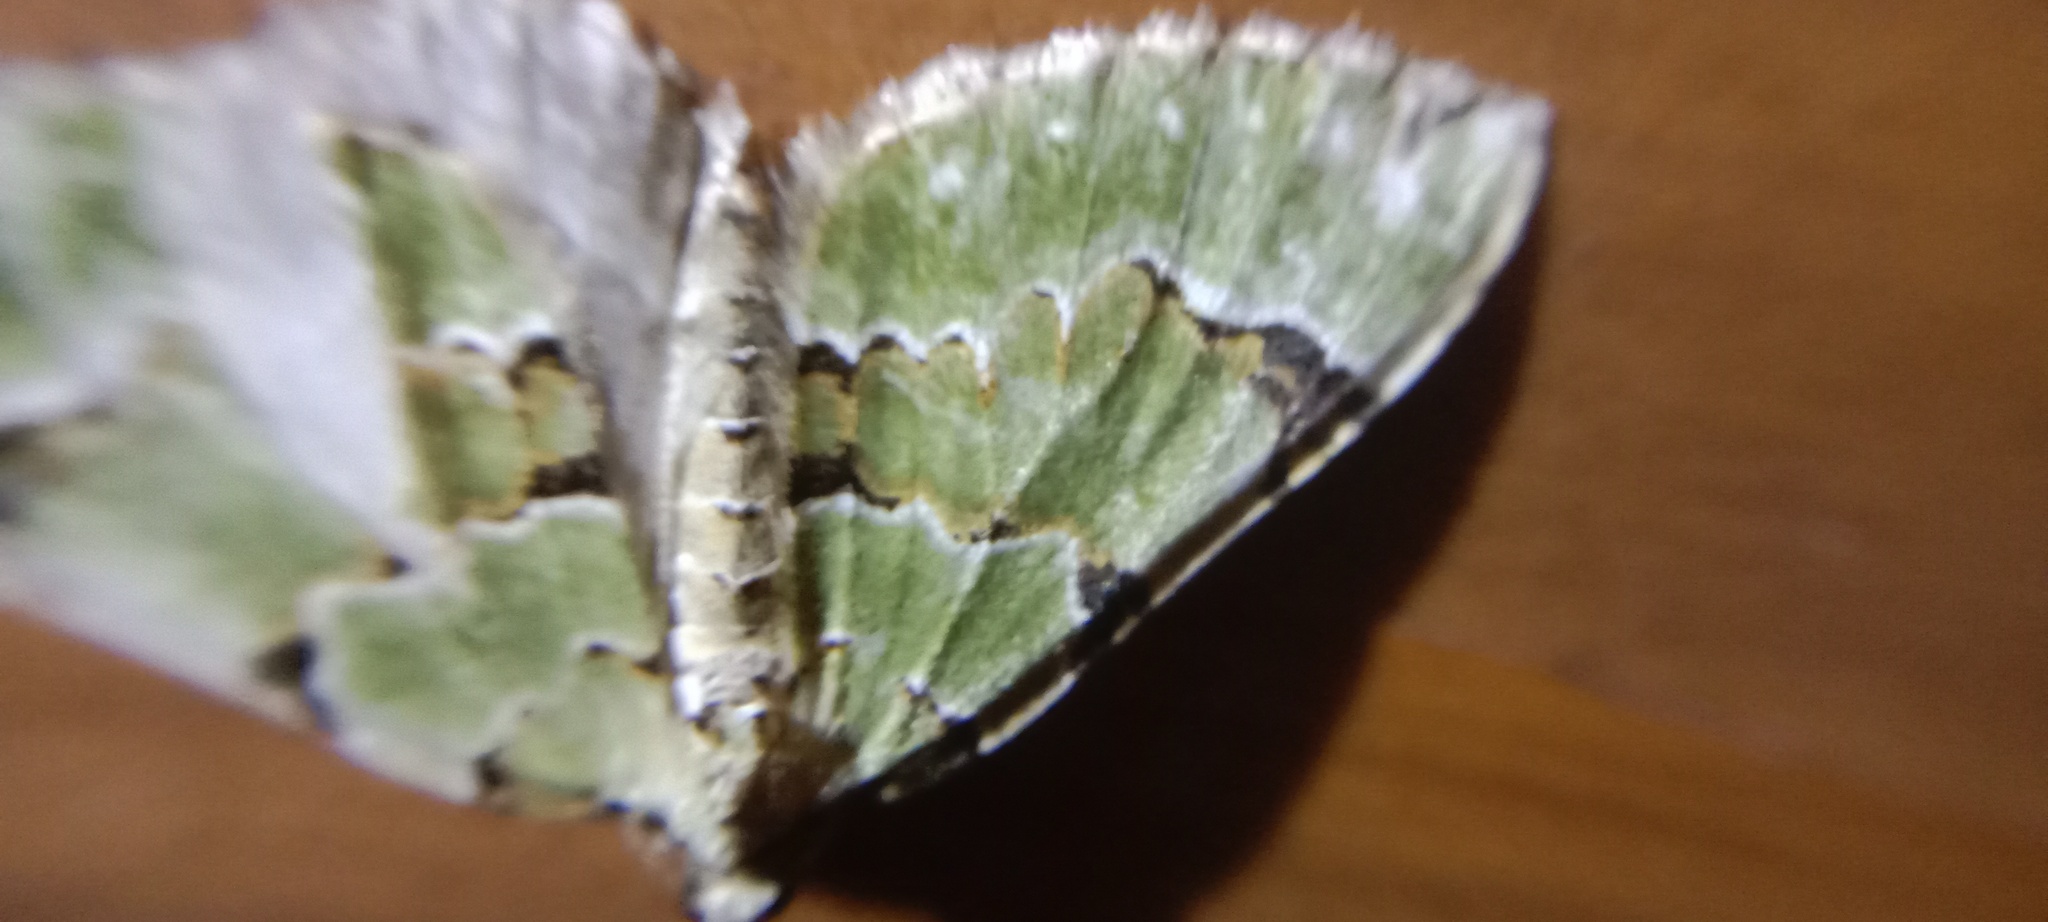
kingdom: Animalia
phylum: Arthropoda
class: Insecta
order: Lepidoptera
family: Geometridae
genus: Colostygia
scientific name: Colostygia pectinataria
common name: Green carpet
